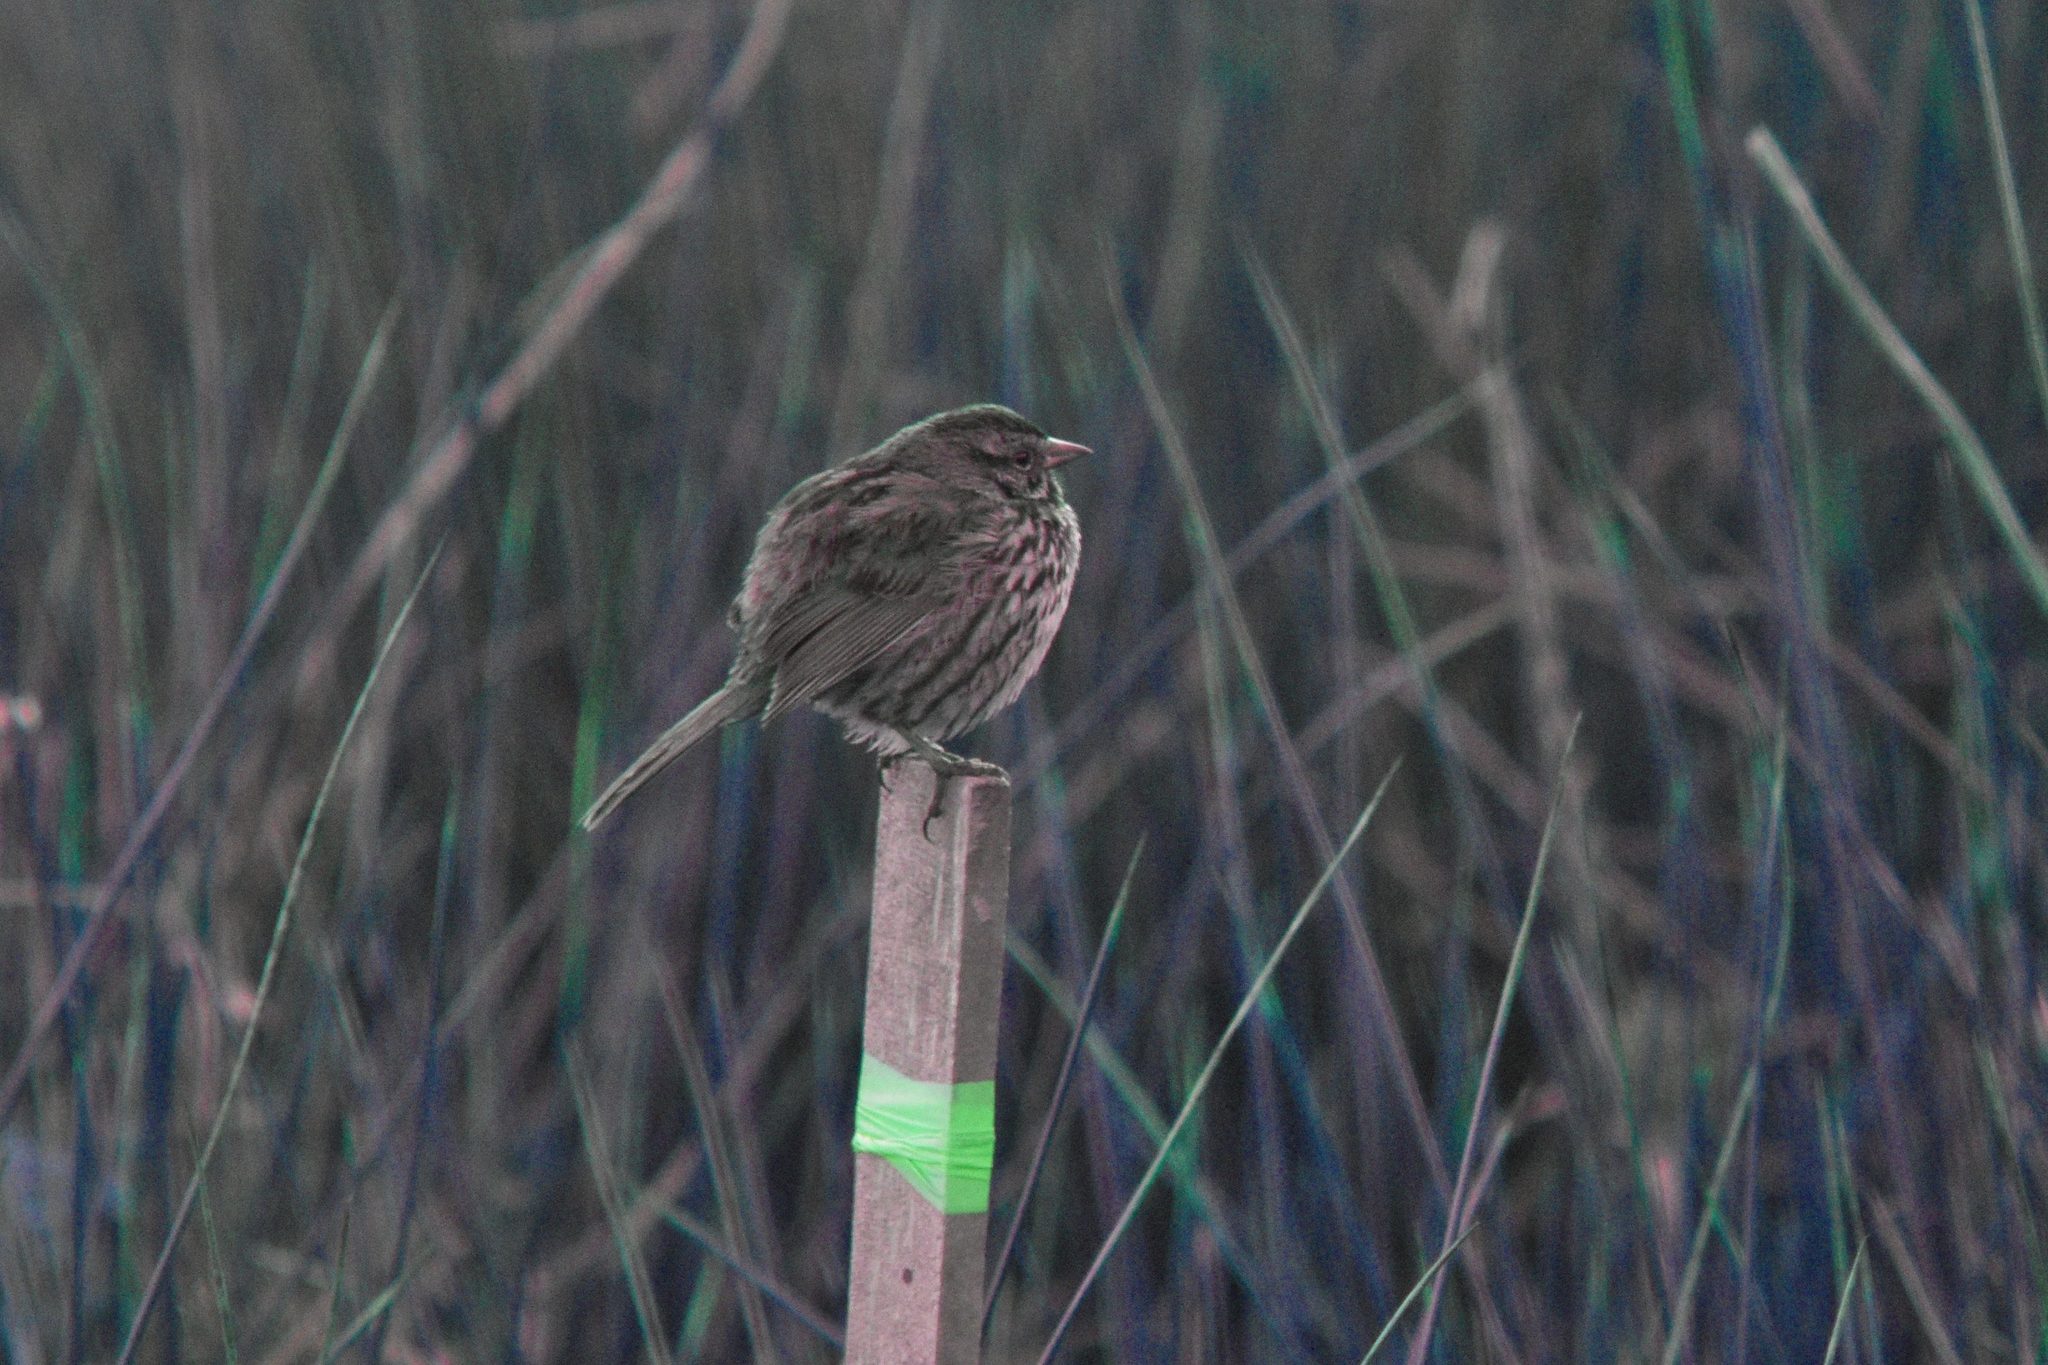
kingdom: Animalia
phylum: Chordata
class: Aves
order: Passeriformes
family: Passerellidae
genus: Melospiza
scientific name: Melospiza melodia
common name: Song sparrow
